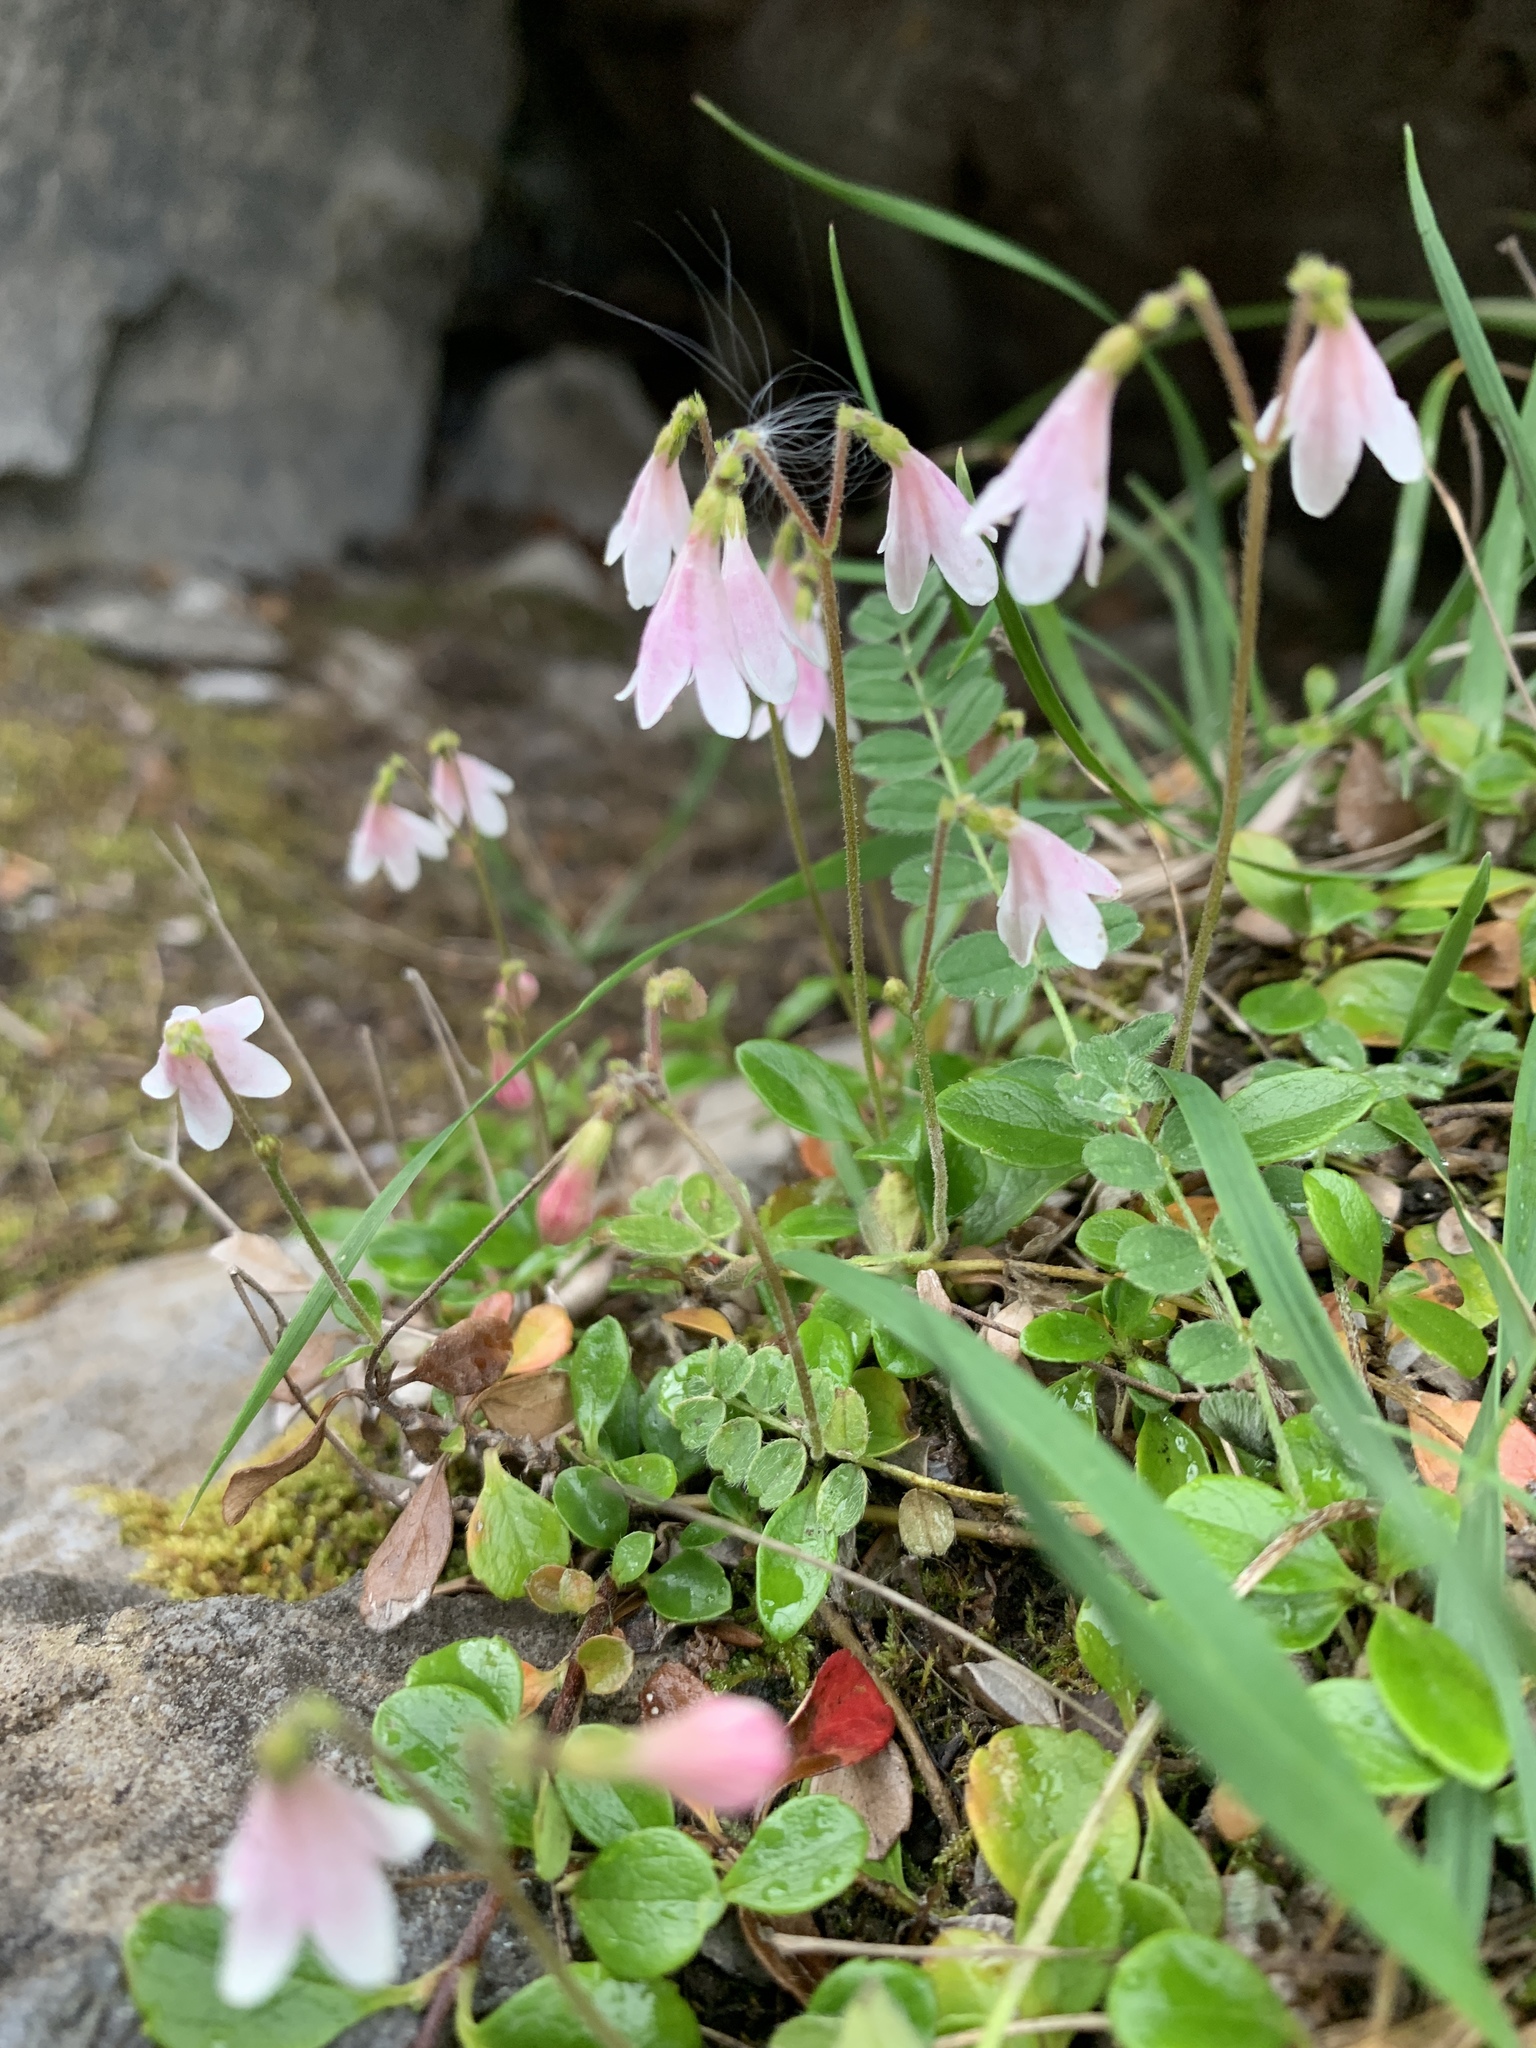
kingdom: Plantae
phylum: Tracheophyta
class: Magnoliopsida
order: Dipsacales
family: Caprifoliaceae
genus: Linnaea
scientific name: Linnaea borealis
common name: Twinflower
